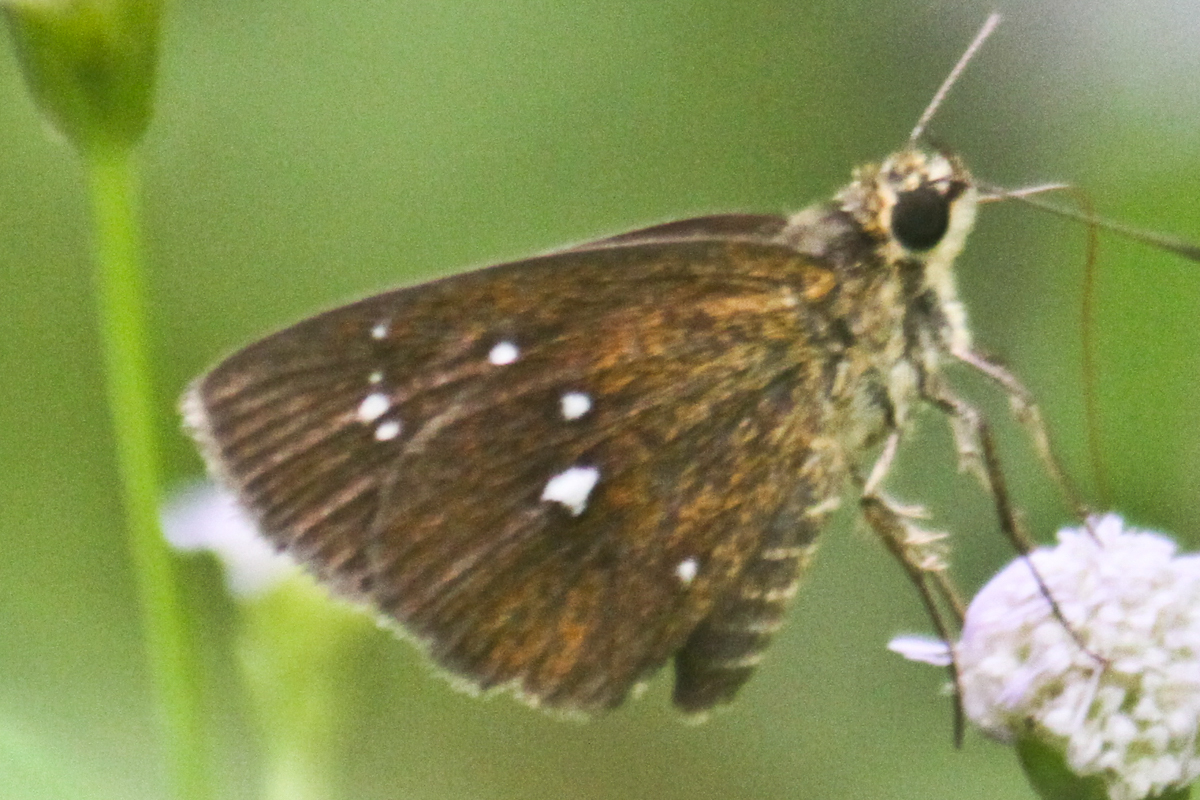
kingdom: Animalia
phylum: Arthropoda
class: Insecta
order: Lepidoptera
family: Hesperiidae
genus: Iambrix
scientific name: Iambrix salsala
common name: Chestnut bob
